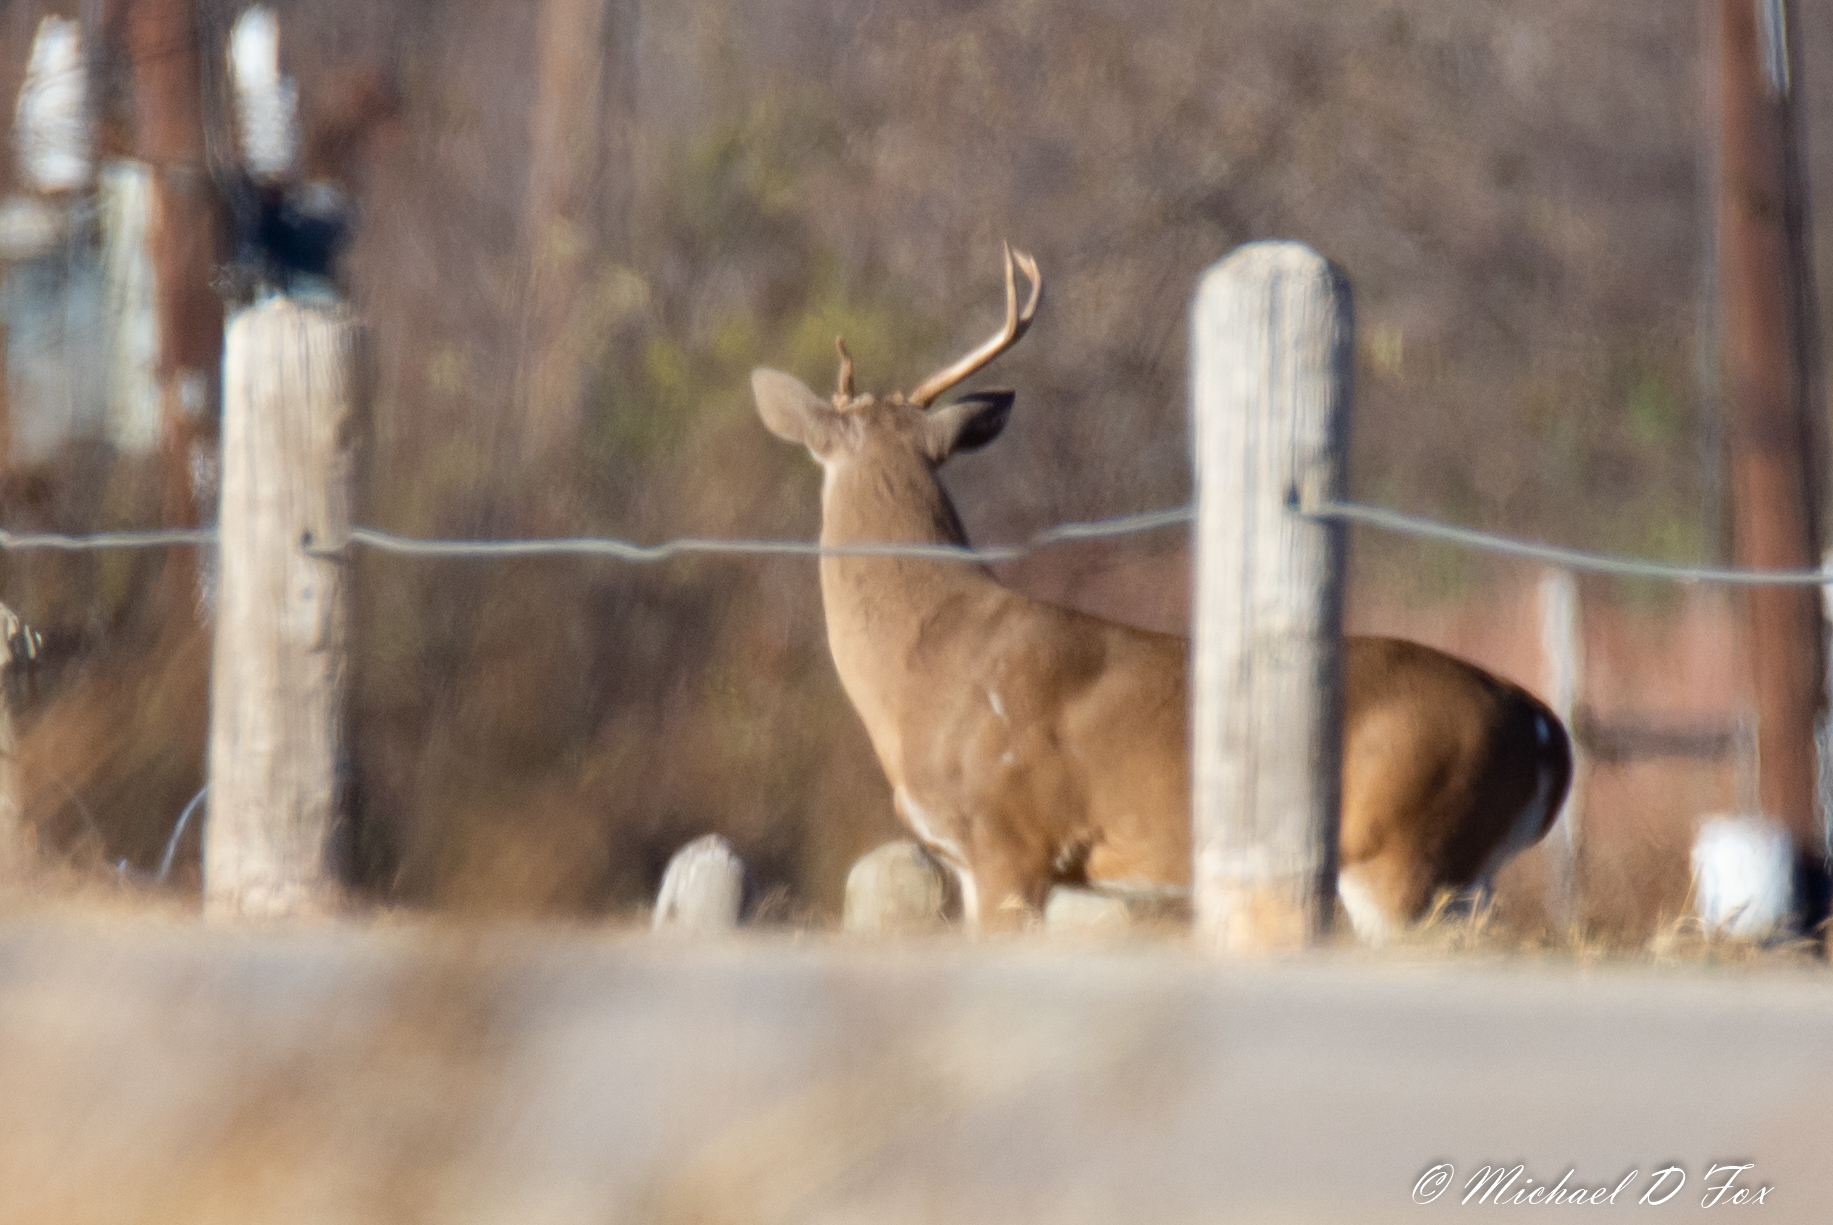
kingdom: Animalia
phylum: Chordata
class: Mammalia
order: Artiodactyla
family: Cervidae
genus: Odocoileus
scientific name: Odocoileus virginianus
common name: White-tailed deer
